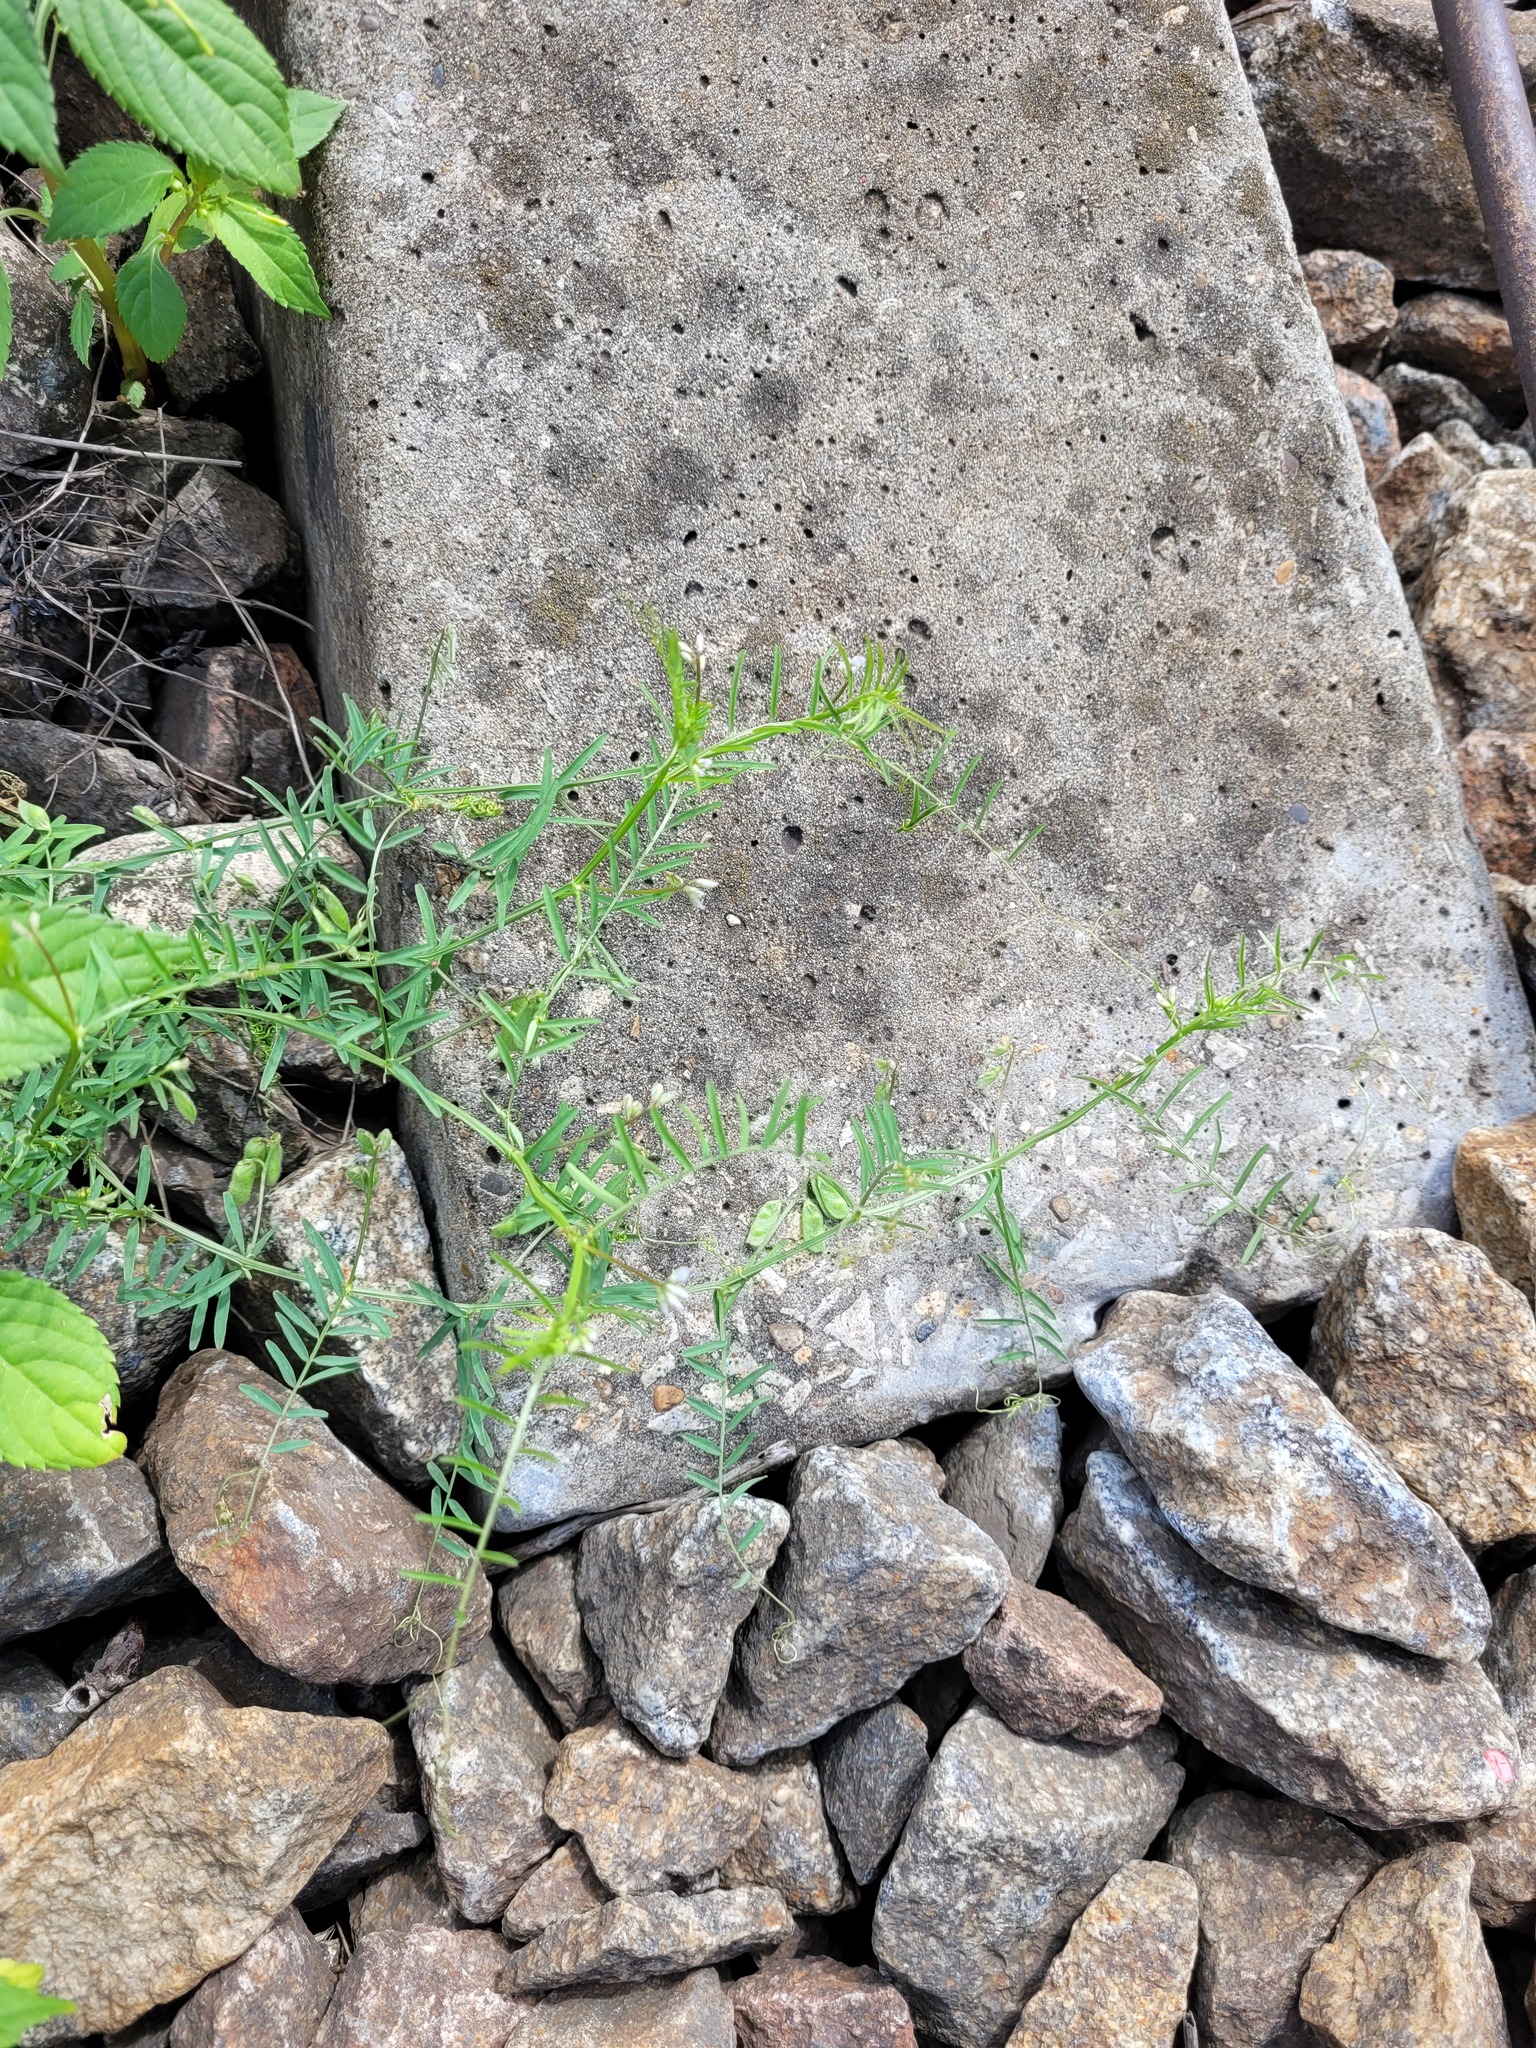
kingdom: Plantae
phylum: Tracheophyta
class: Magnoliopsida
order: Fabales
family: Fabaceae
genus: Vicia
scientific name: Vicia hirsuta
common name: Tiny vetch
